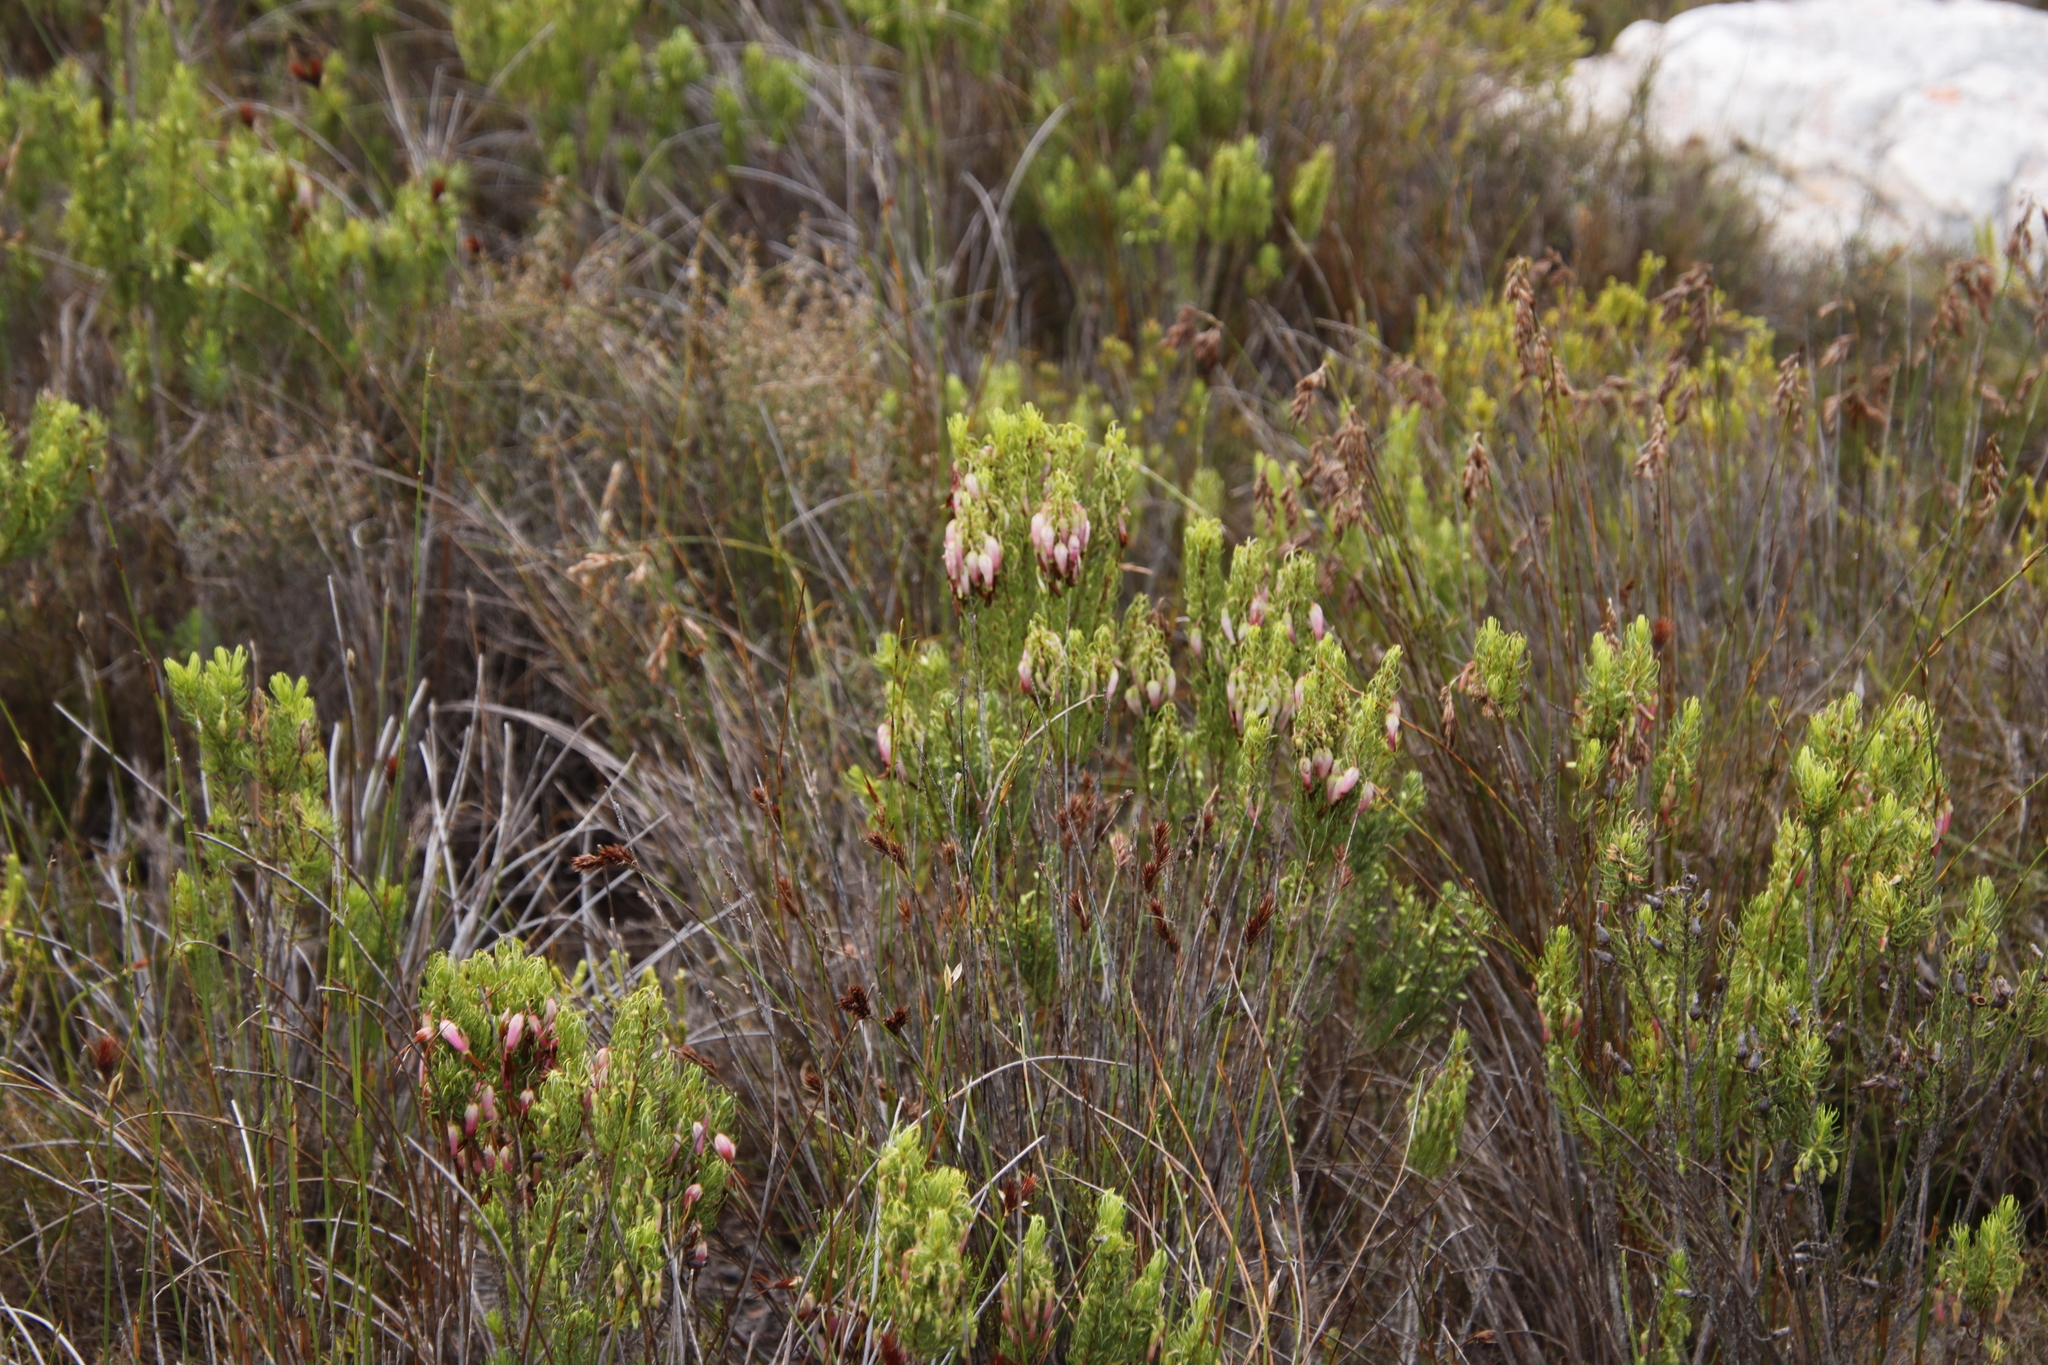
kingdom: Plantae
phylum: Tracheophyta
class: Magnoliopsida
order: Ericales
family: Ericaceae
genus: Erica
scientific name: Erica plukenetii
